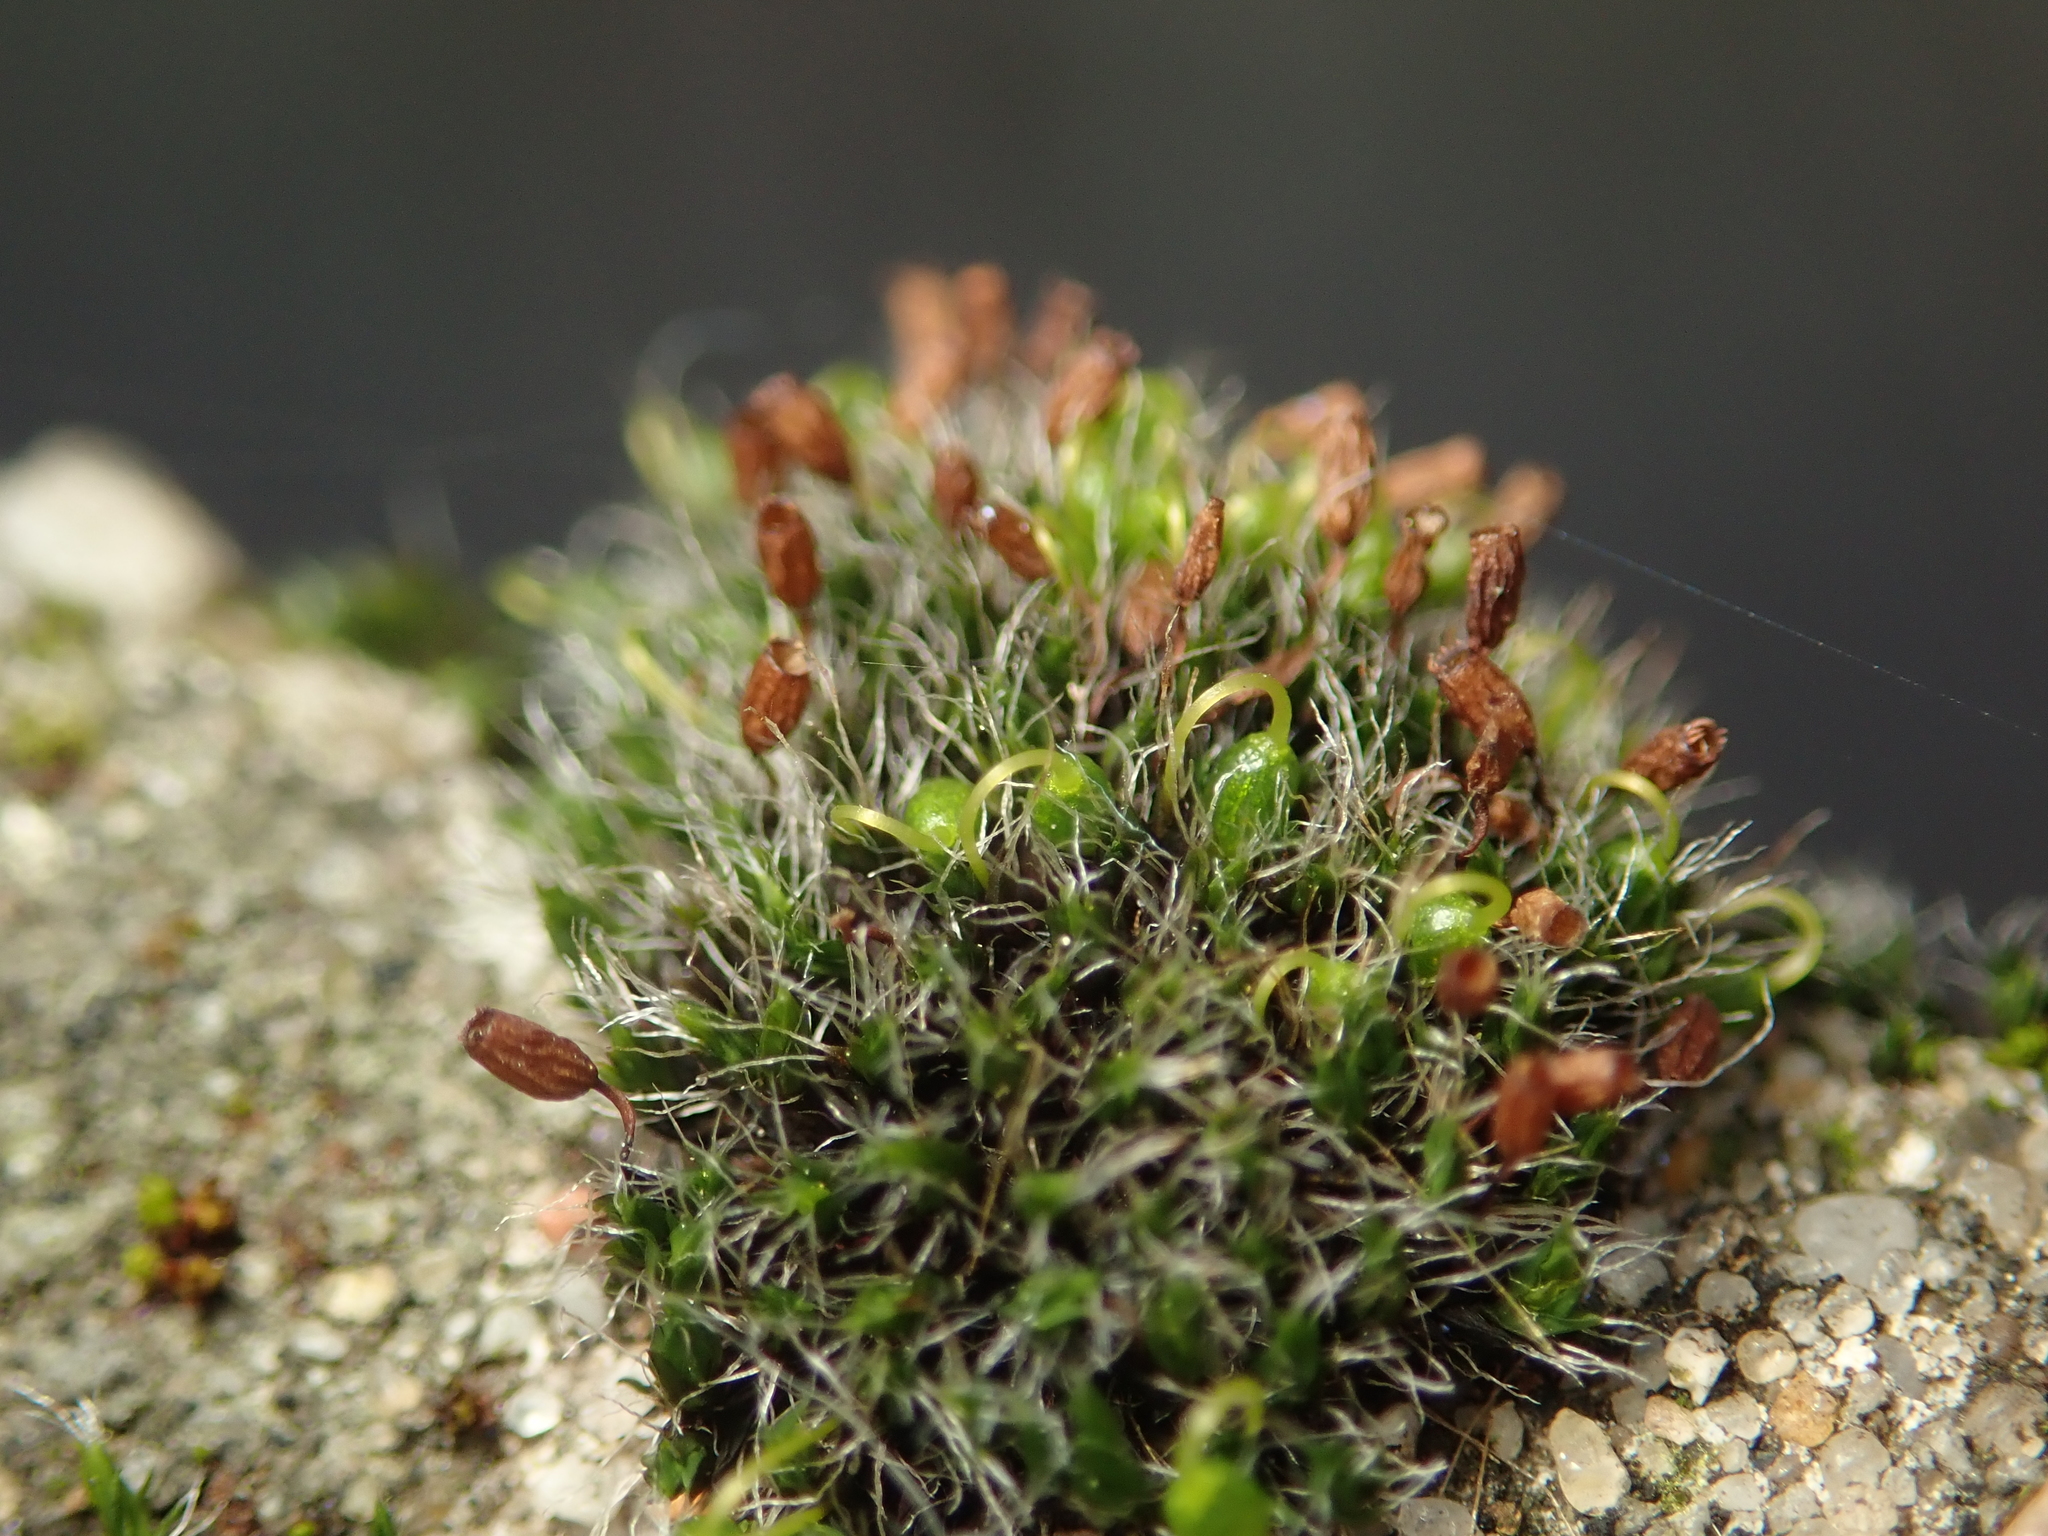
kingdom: Plantae
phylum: Bryophyta
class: Bryopsida
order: Grimmiales
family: Grimmiaceae
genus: Grimmia
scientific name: Grimmia pulvinata
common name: Grey-cushioned grimmia
